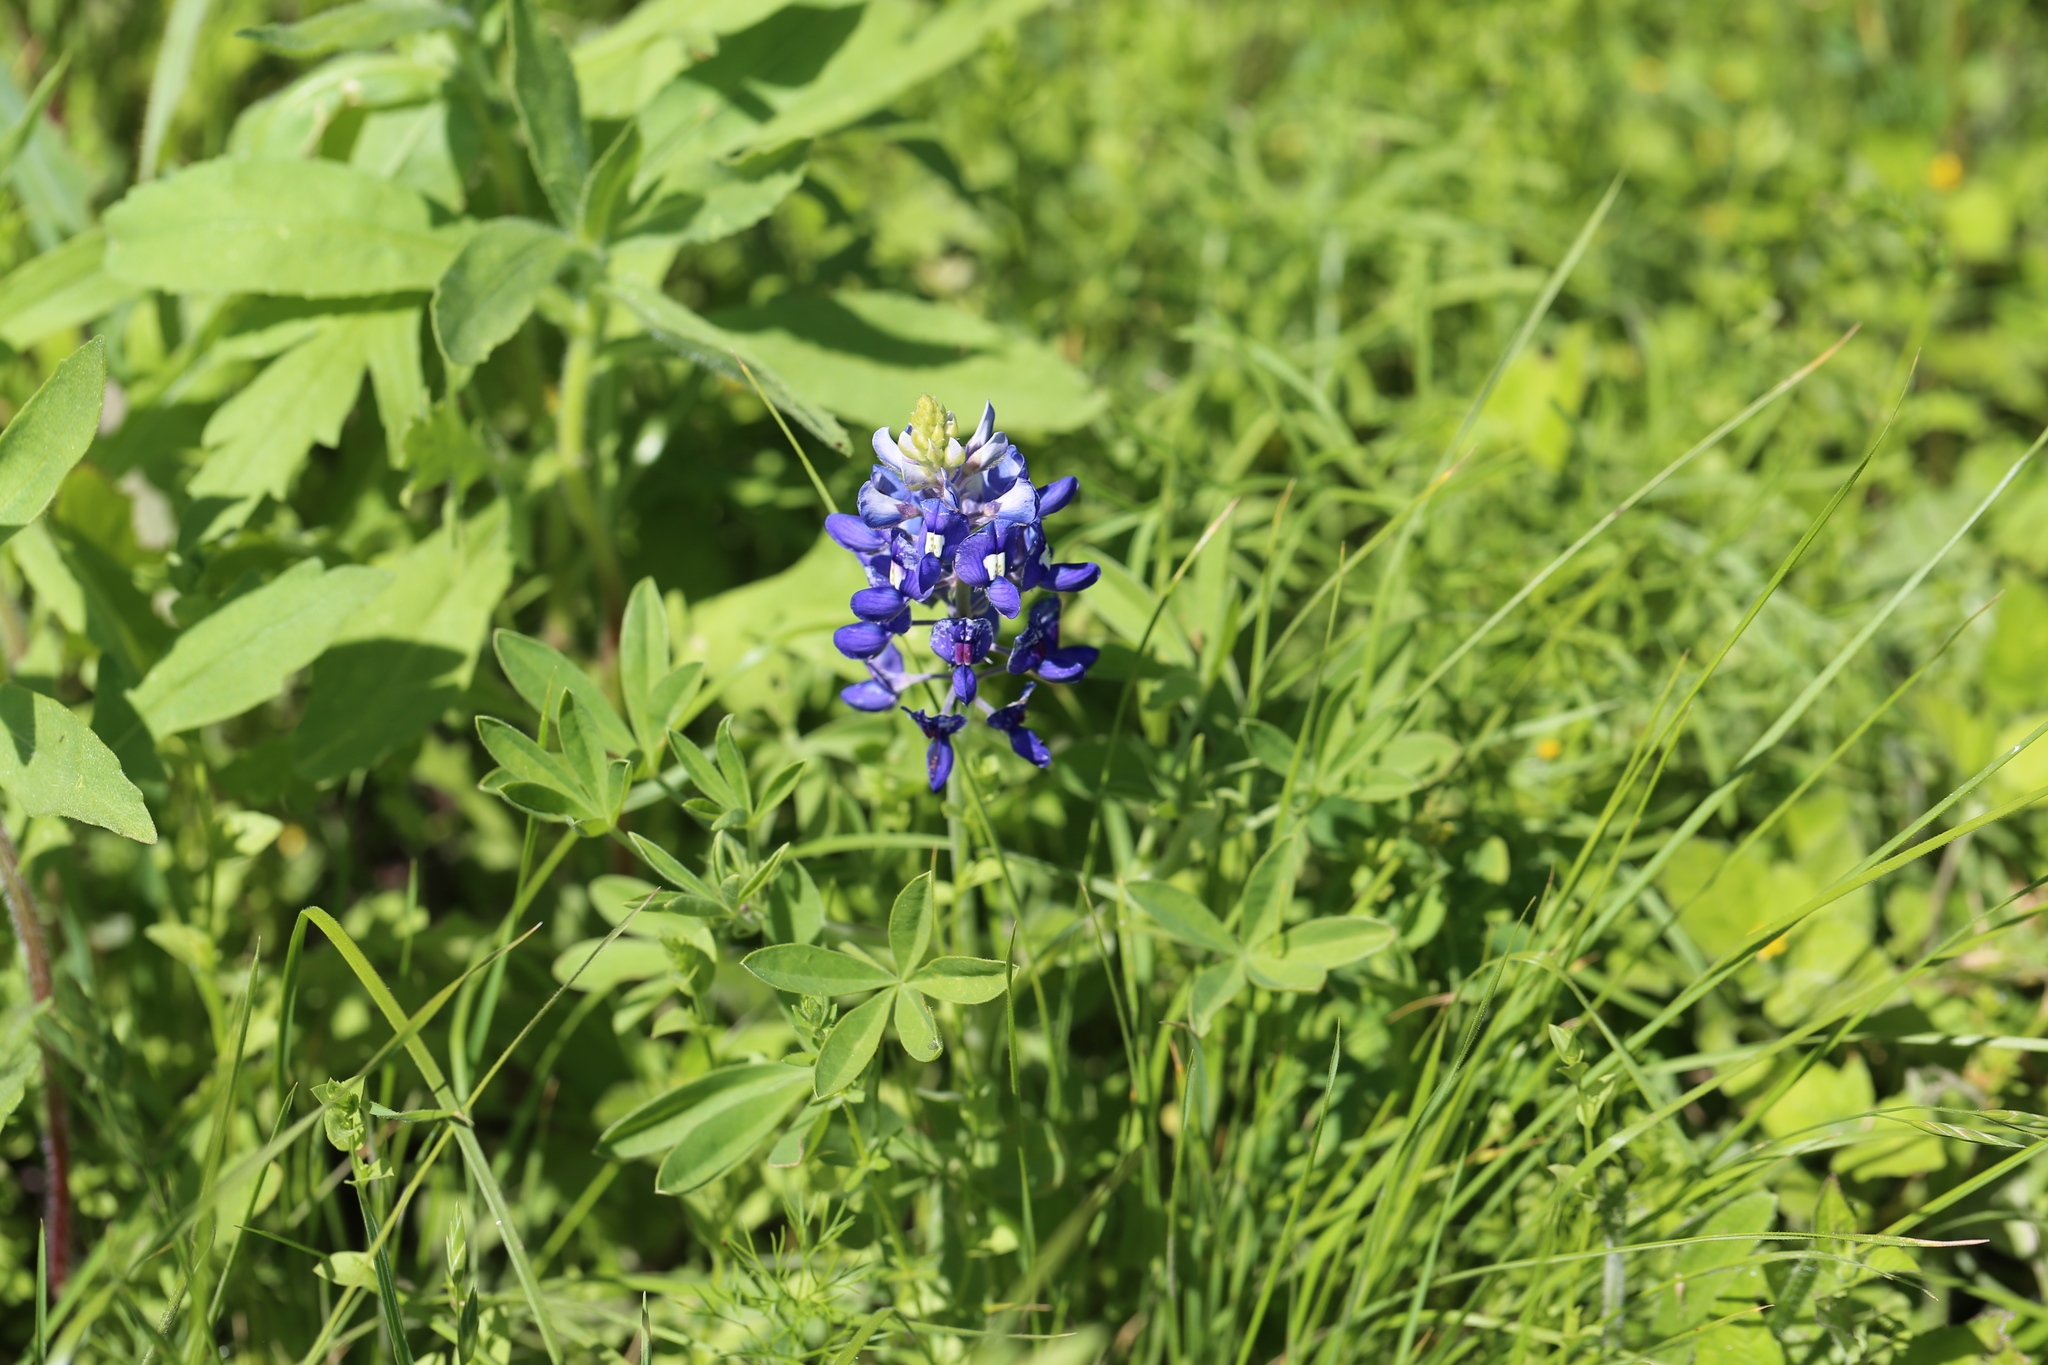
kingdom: Plantae
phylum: Tracheophyta
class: Magnoliopsida
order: Fabales
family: Fabaceae
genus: Lupinus
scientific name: Lupinus texensis
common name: Texas bluebonnet
